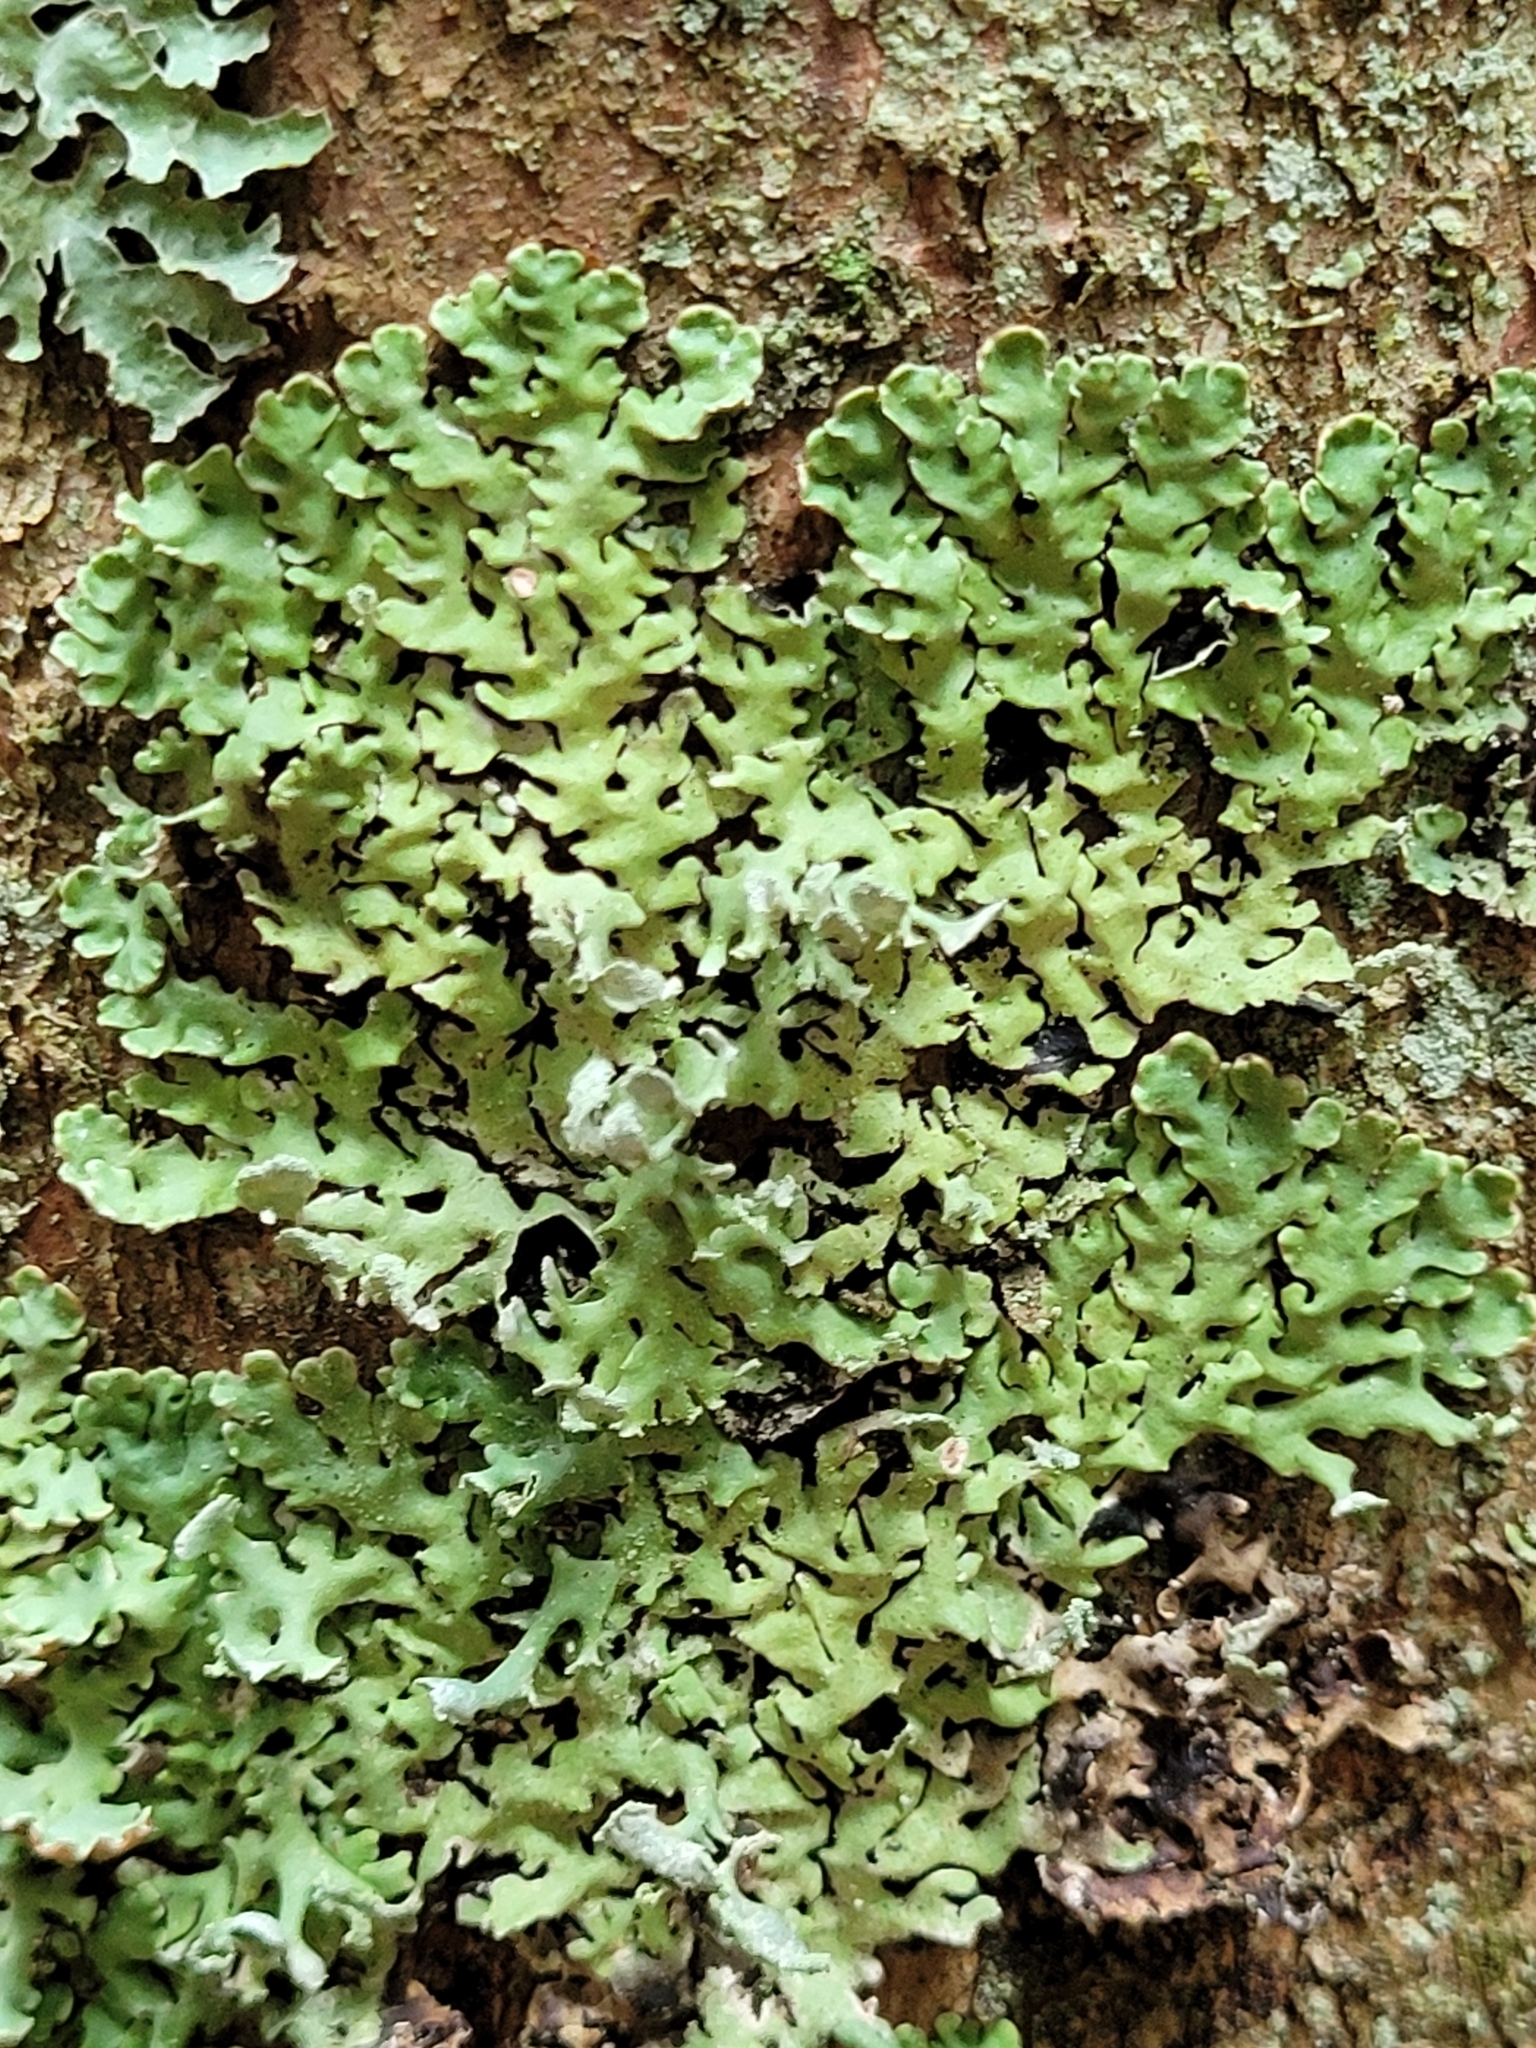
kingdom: Fungi
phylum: Ascomycota
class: Lecanoromycetes
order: Lecanorales
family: Parmeliaceae
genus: Hypogymnia
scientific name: Hypogymnia physodes
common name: Dark crottle
